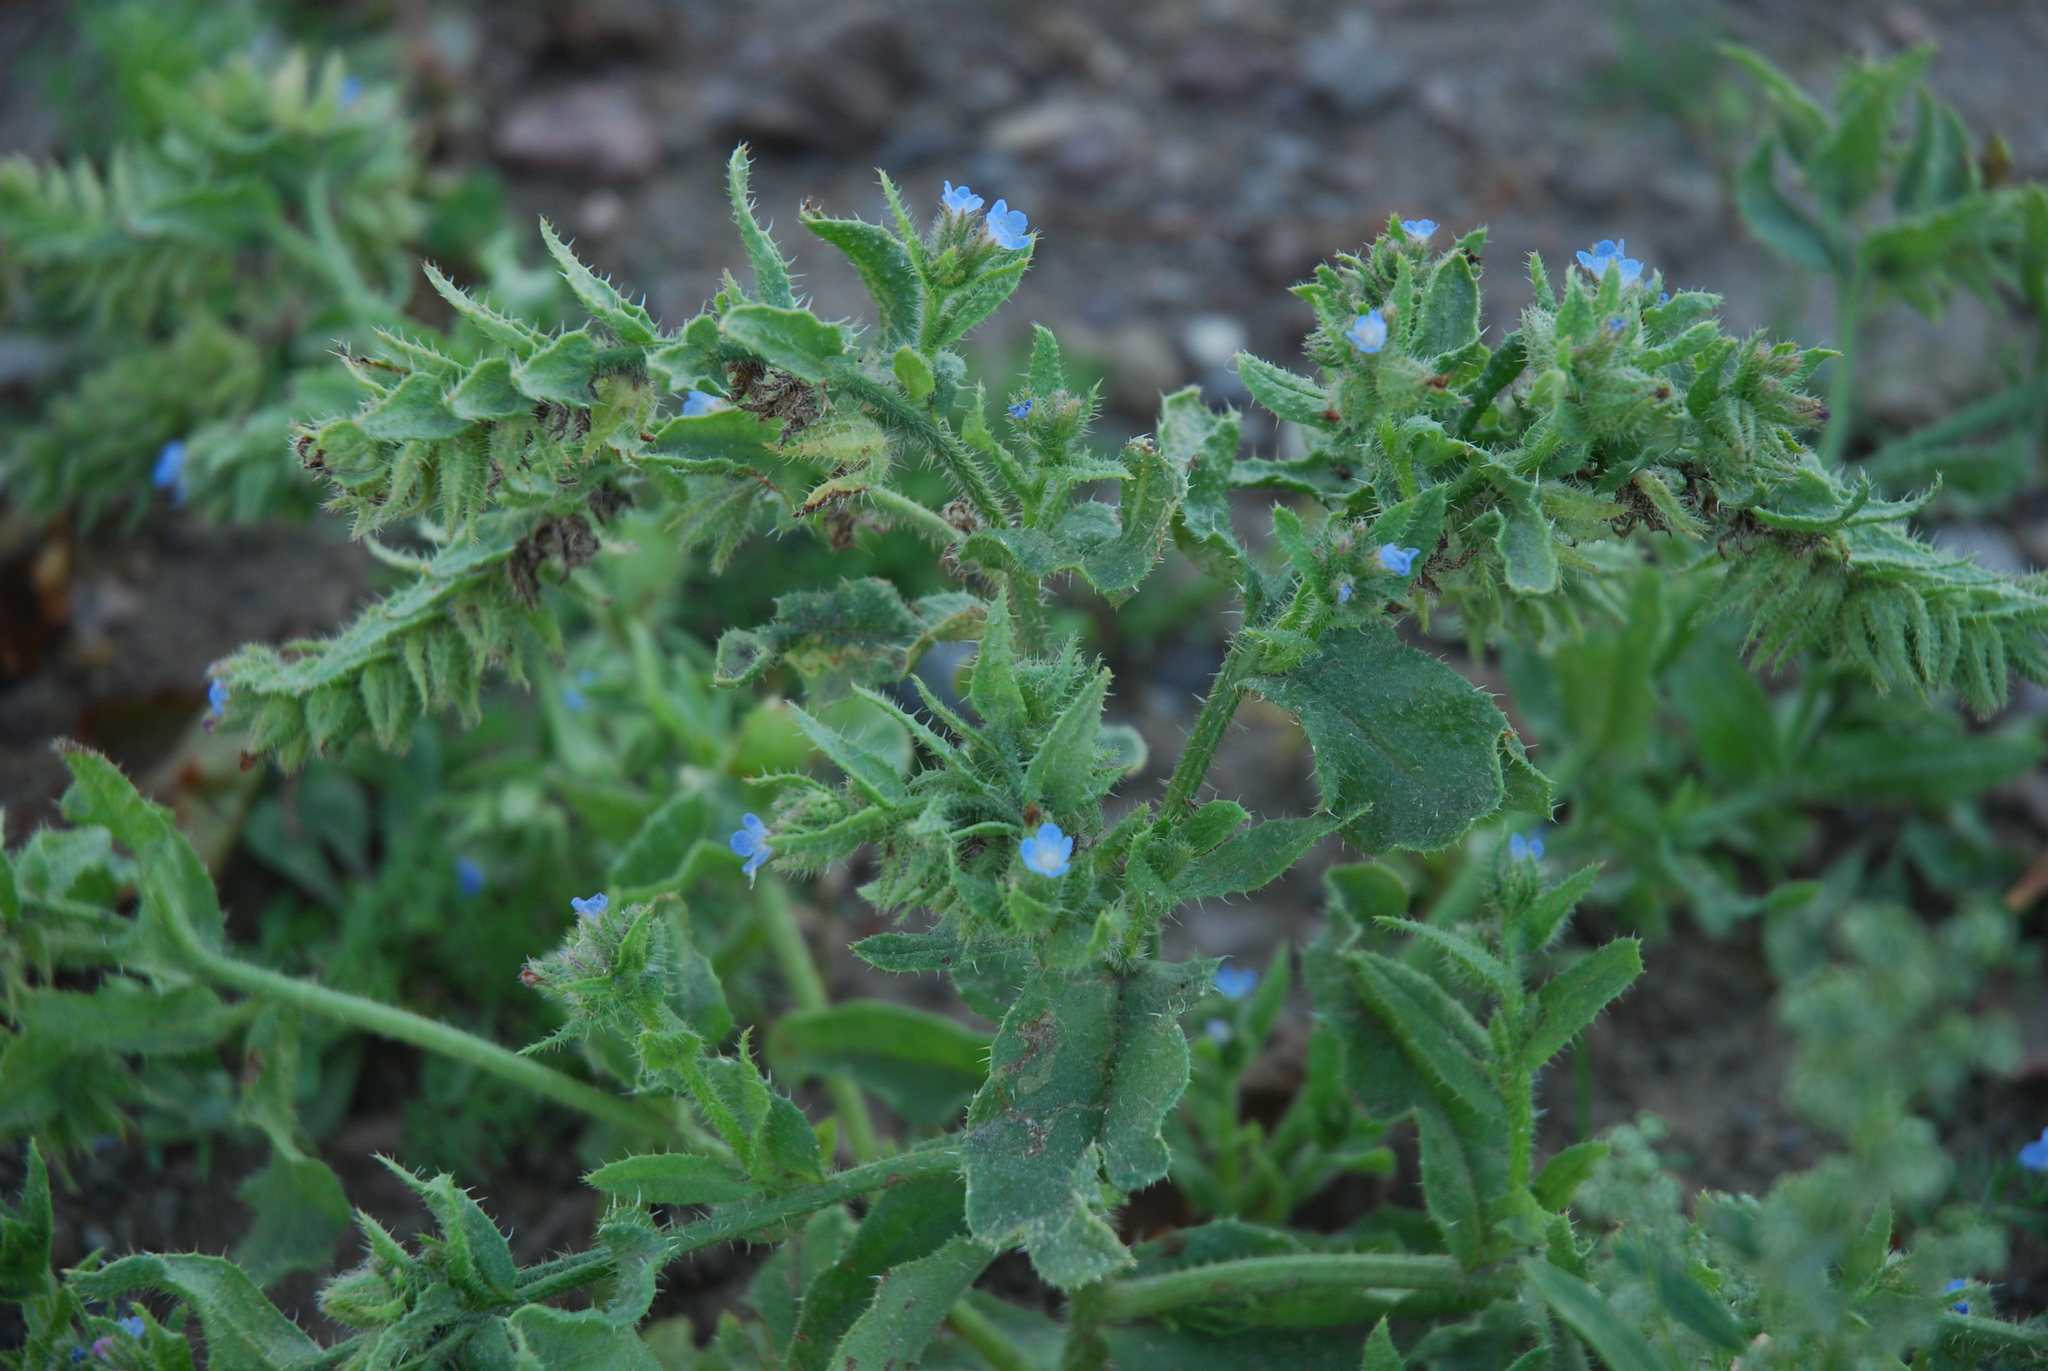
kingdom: Plantae
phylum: Tracheophyta
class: Magnoliopsida
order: Boraginales
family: Boraginaceae
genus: Lycopsis
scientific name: Lycopsis arvensis
